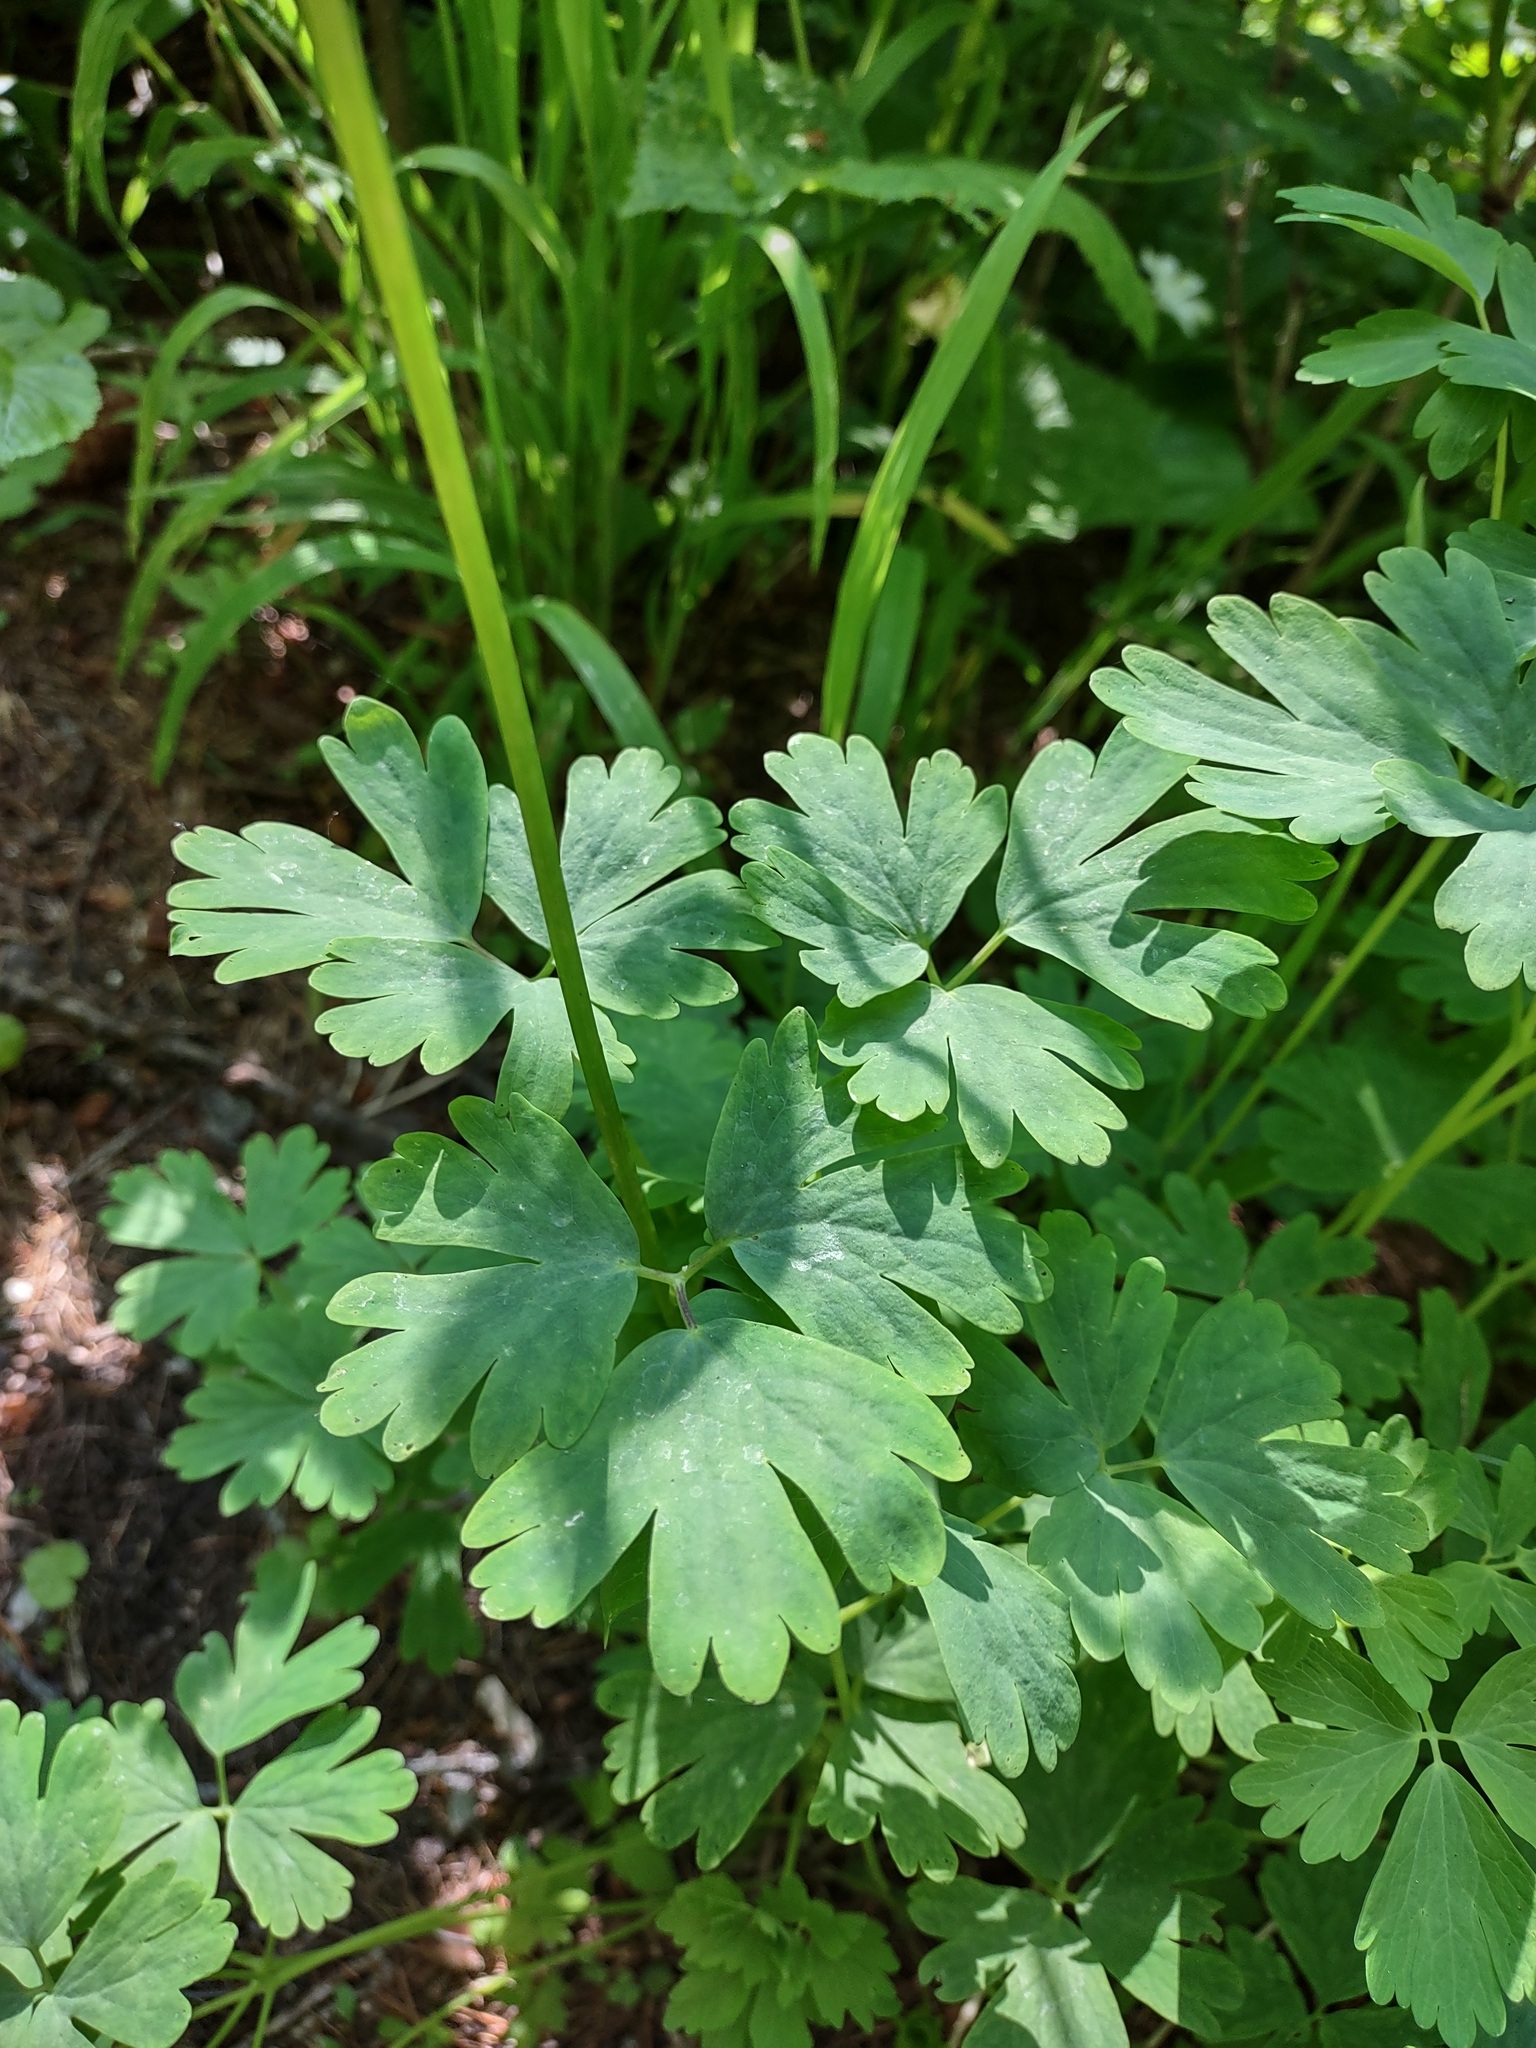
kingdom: Plantae
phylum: Tracheophyta
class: Magnoliopsida
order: Ranunculales
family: Ranunculaceae
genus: Aquilegia
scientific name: Aquilegia flavescens
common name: Yellow columbine
